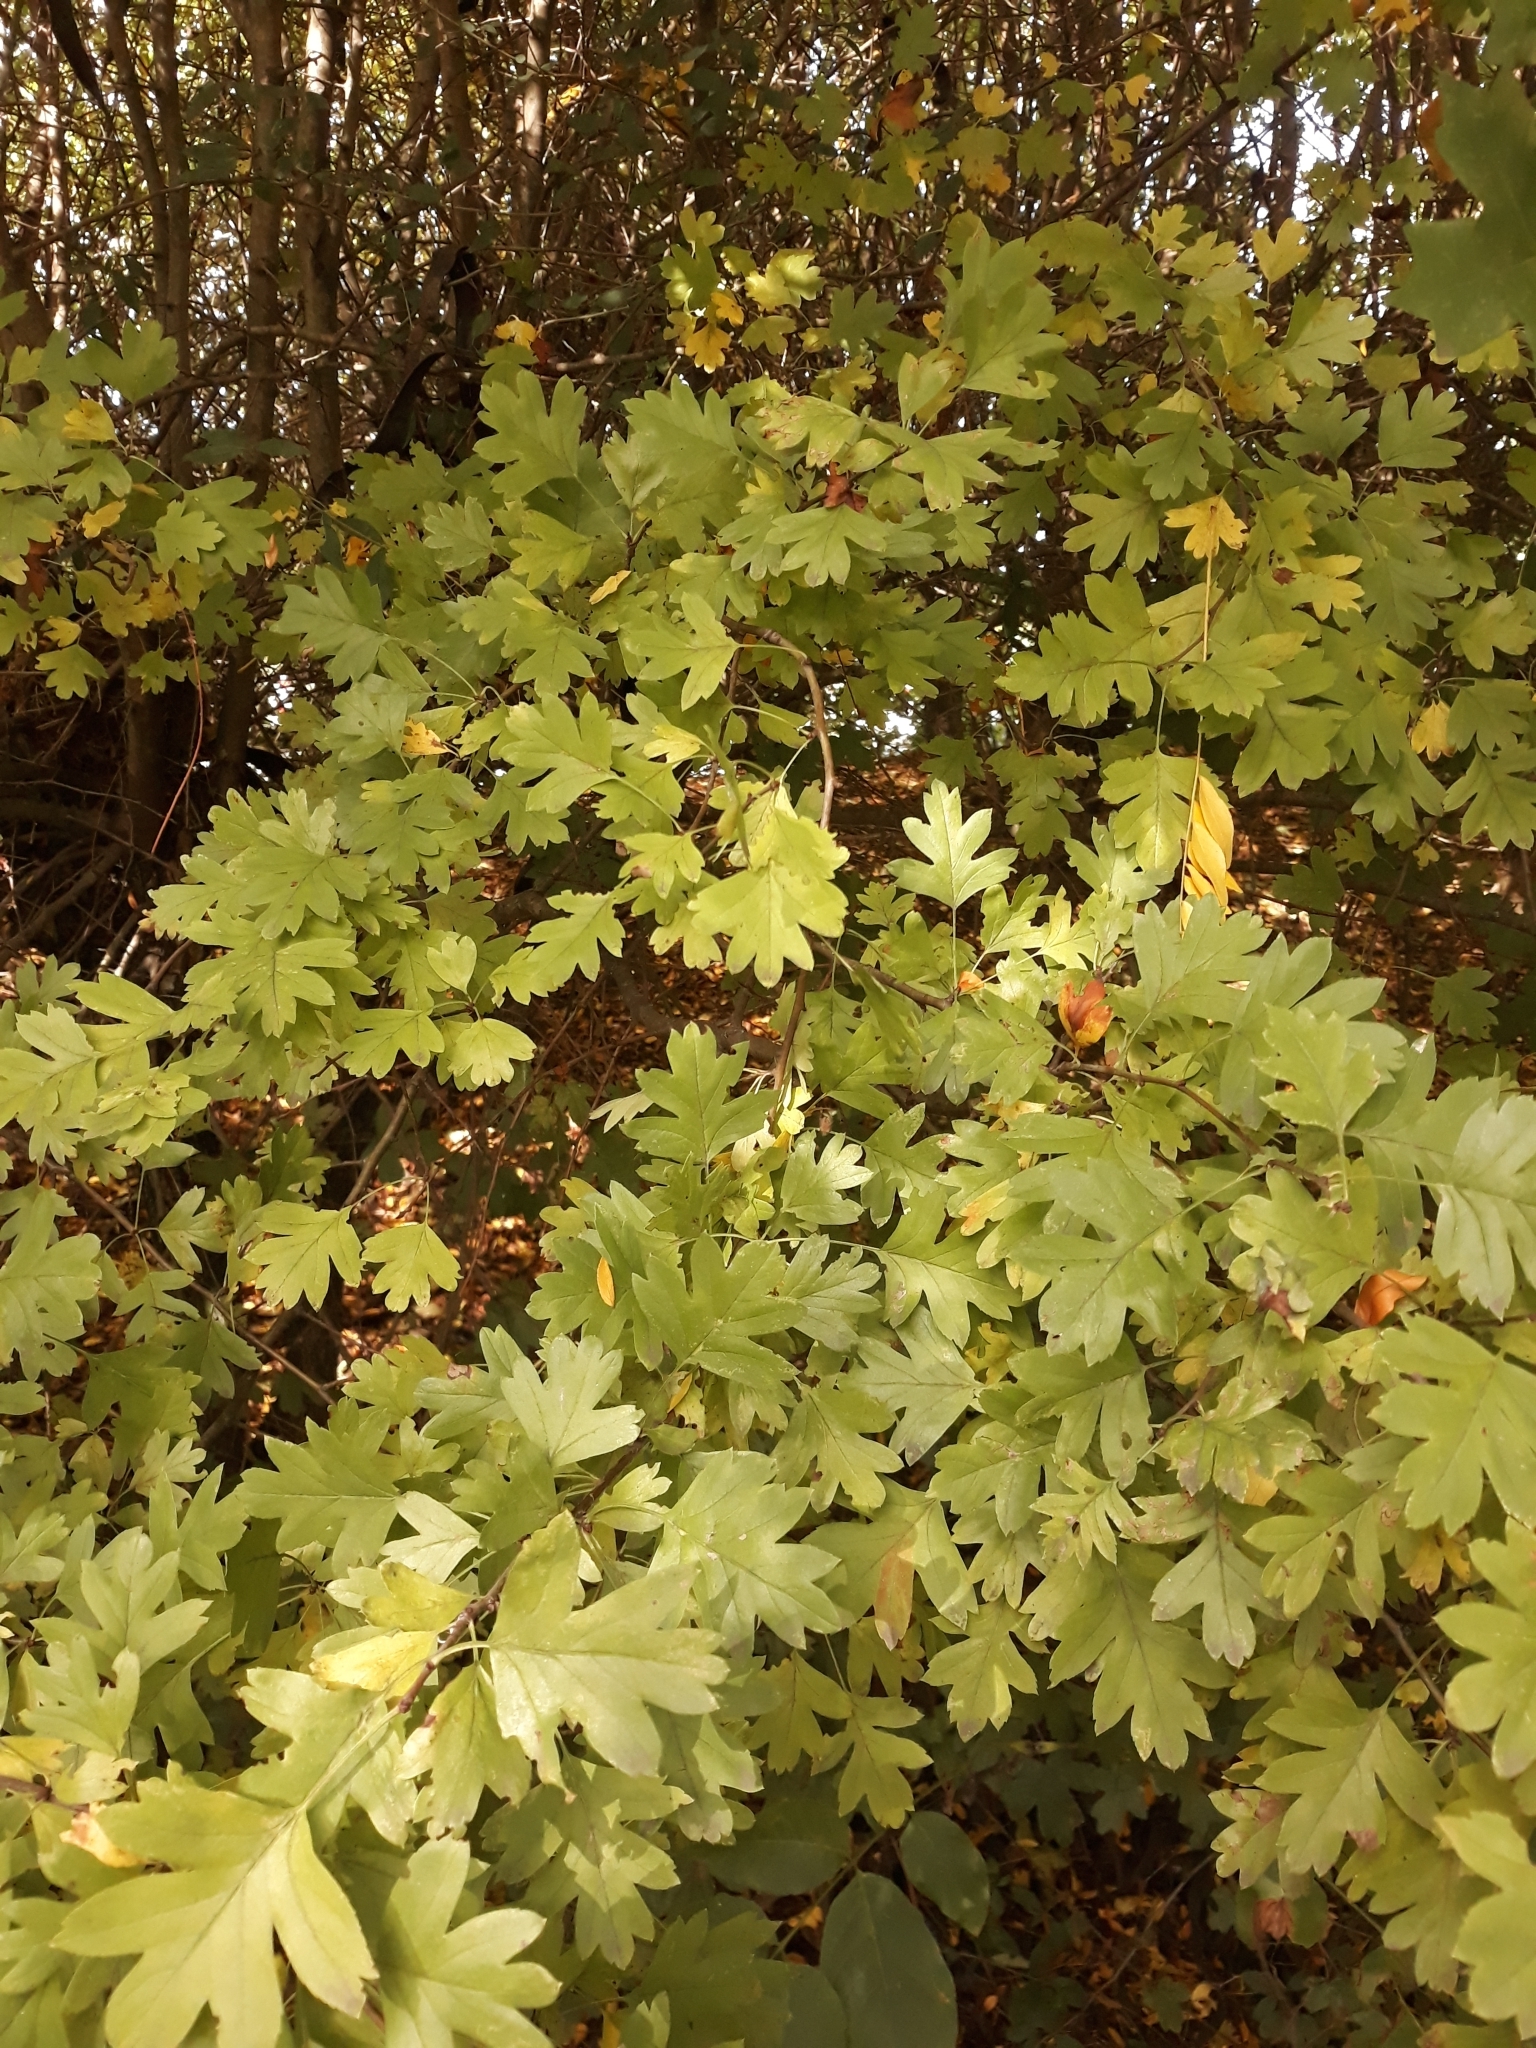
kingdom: Plantae
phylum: Tracheophyta
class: Magnoliopsida
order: Rosales
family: Rosaceae
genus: Crataegus
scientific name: Crataegus monogyna
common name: Hawthorn
